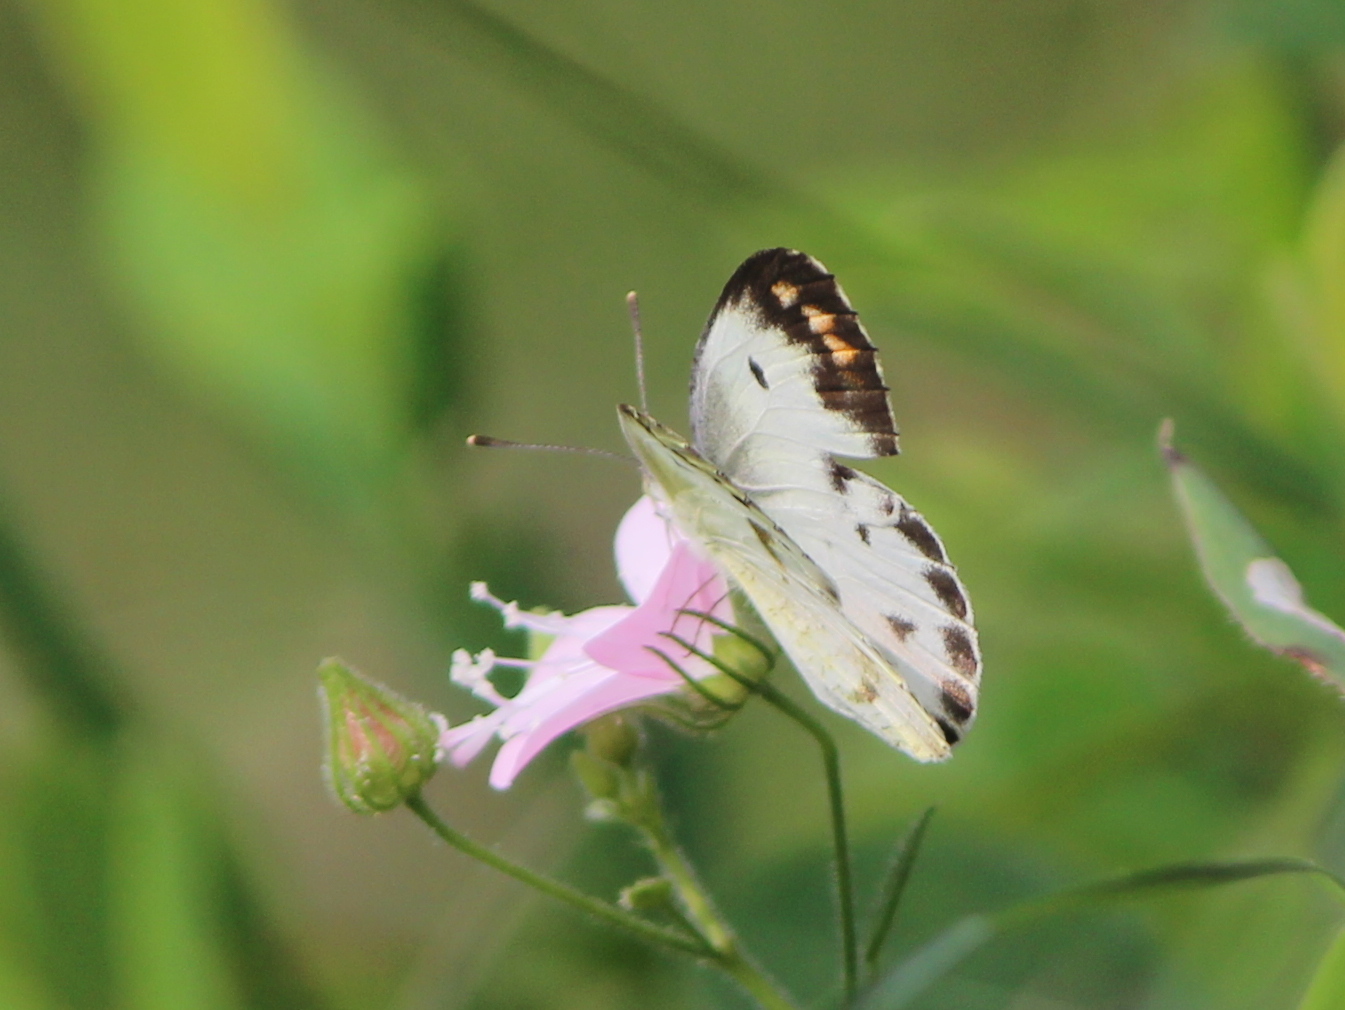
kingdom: Animalia
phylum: Arthropoda
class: Insecta
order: Lepidoptera
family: Pieridae
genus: Colotis
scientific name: Colotis aurora
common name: Plain orange-tip
